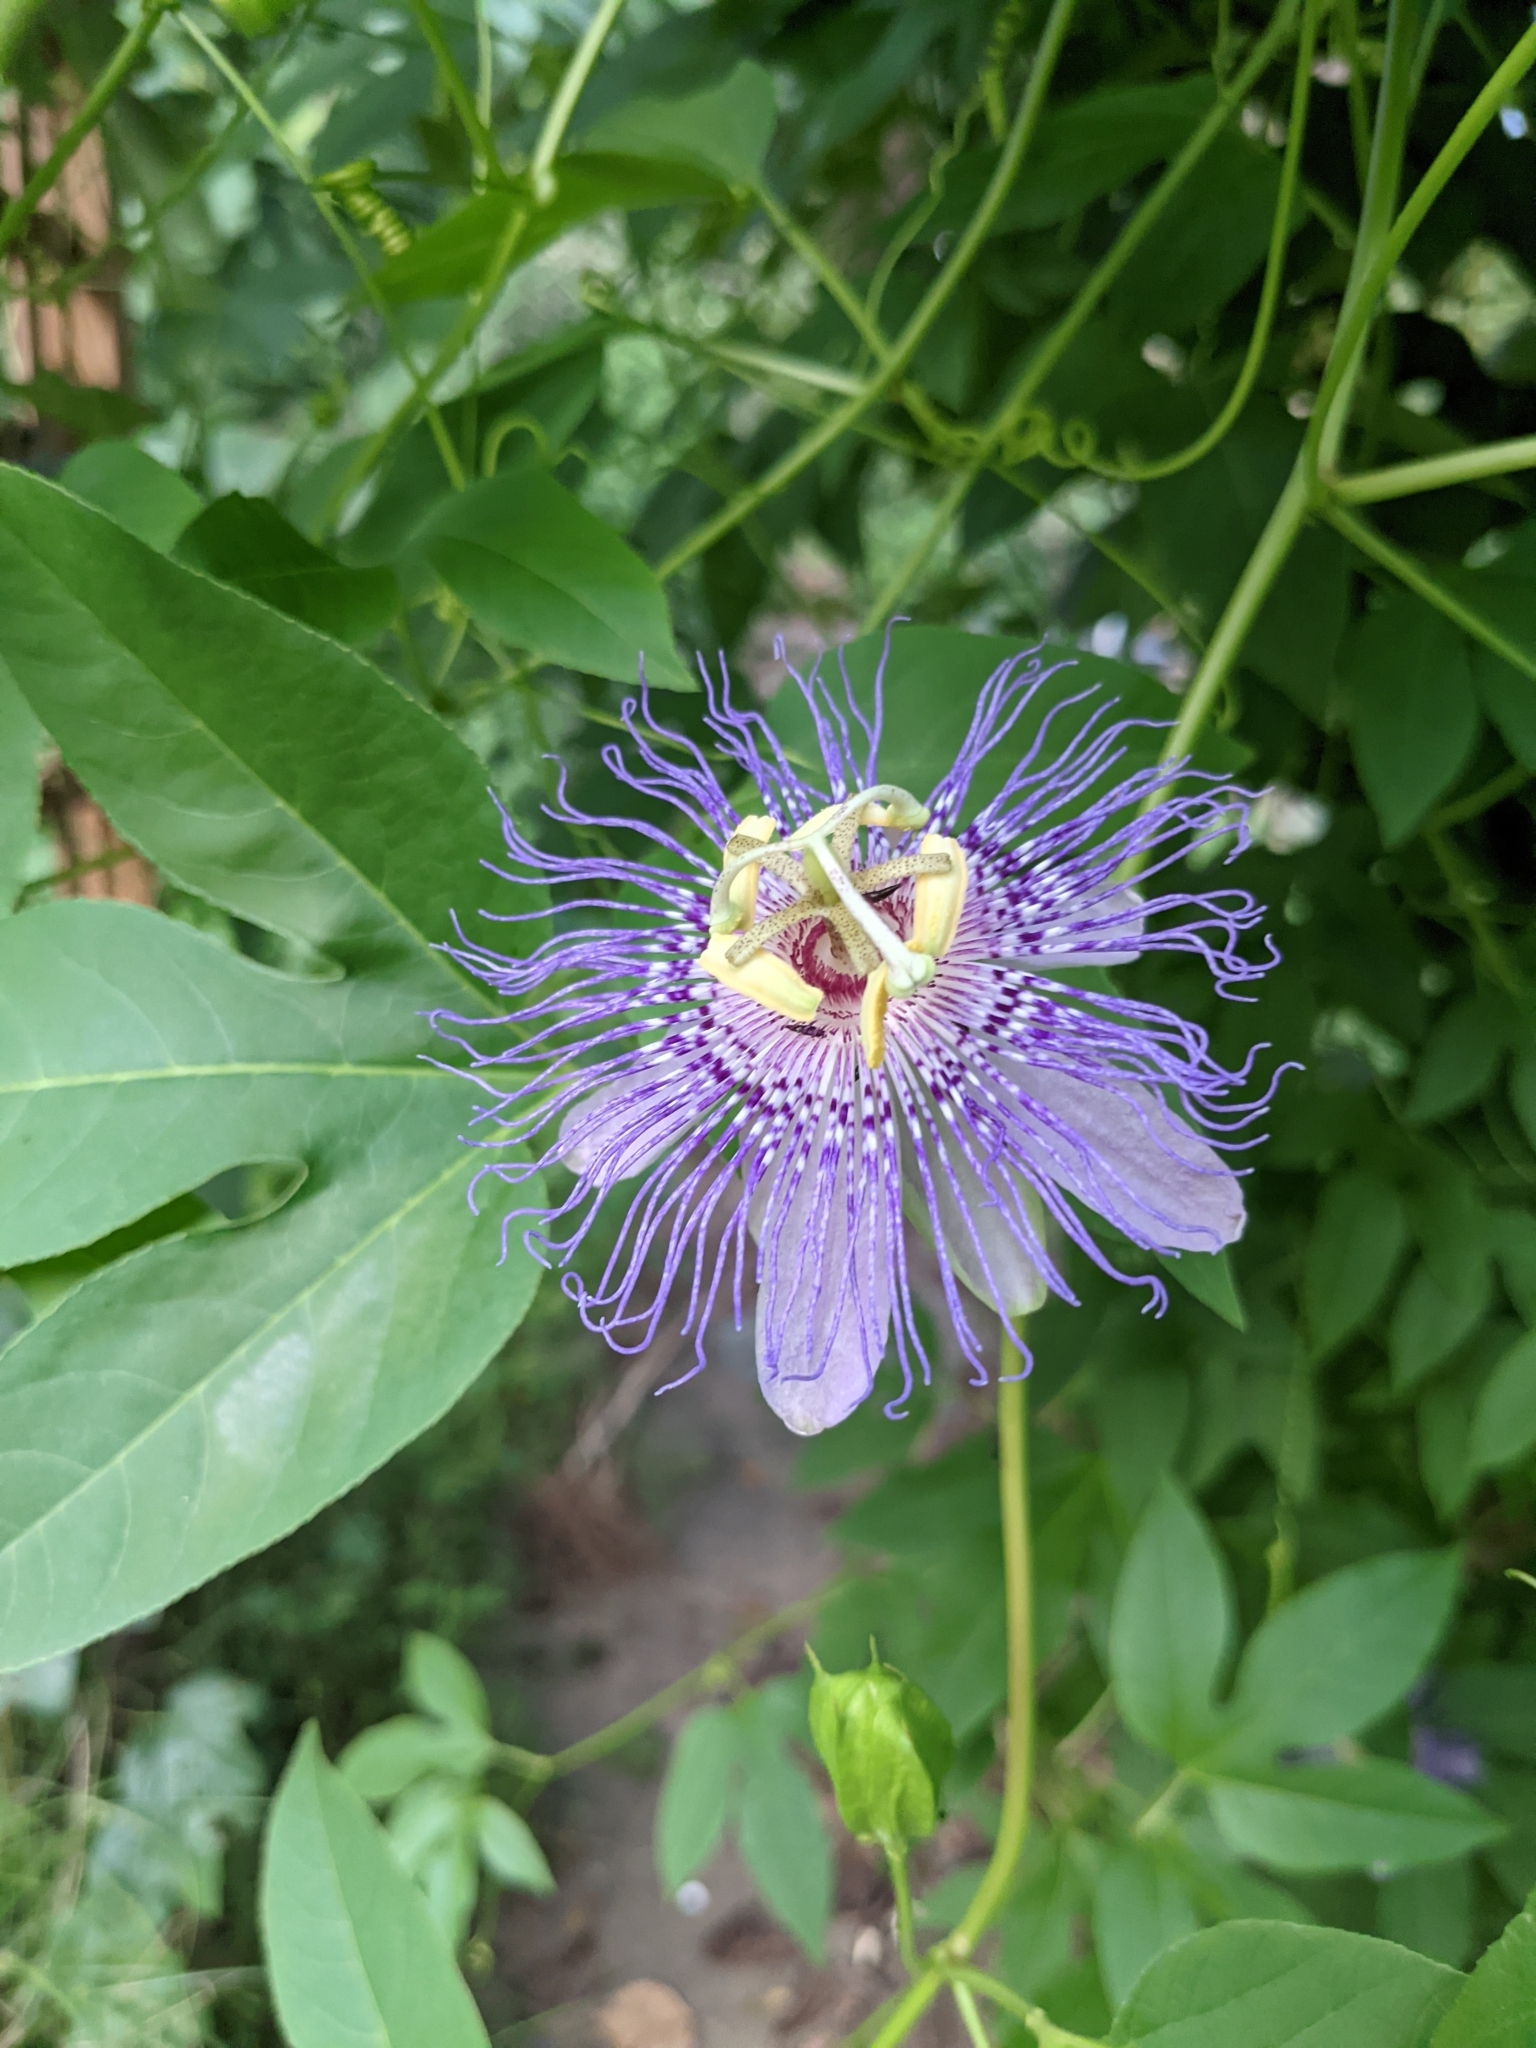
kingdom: Plantae
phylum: Tracheophyta
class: Magnoliopsida
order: Malpighiales
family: Passifloraceae
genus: Passiflora
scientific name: Passiflora incarnata
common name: Apricot-vine
